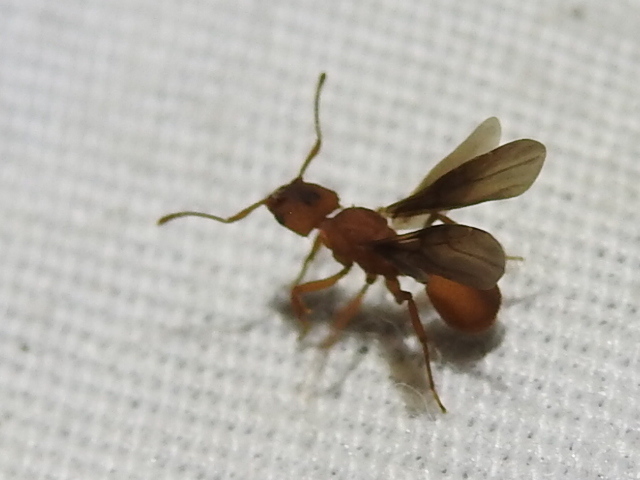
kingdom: Animalia
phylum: Arthropoda
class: Insecta
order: Hymenoptera
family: Formicidae
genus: Trachymyrmex
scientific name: Trachymyrmex septentrionalis
